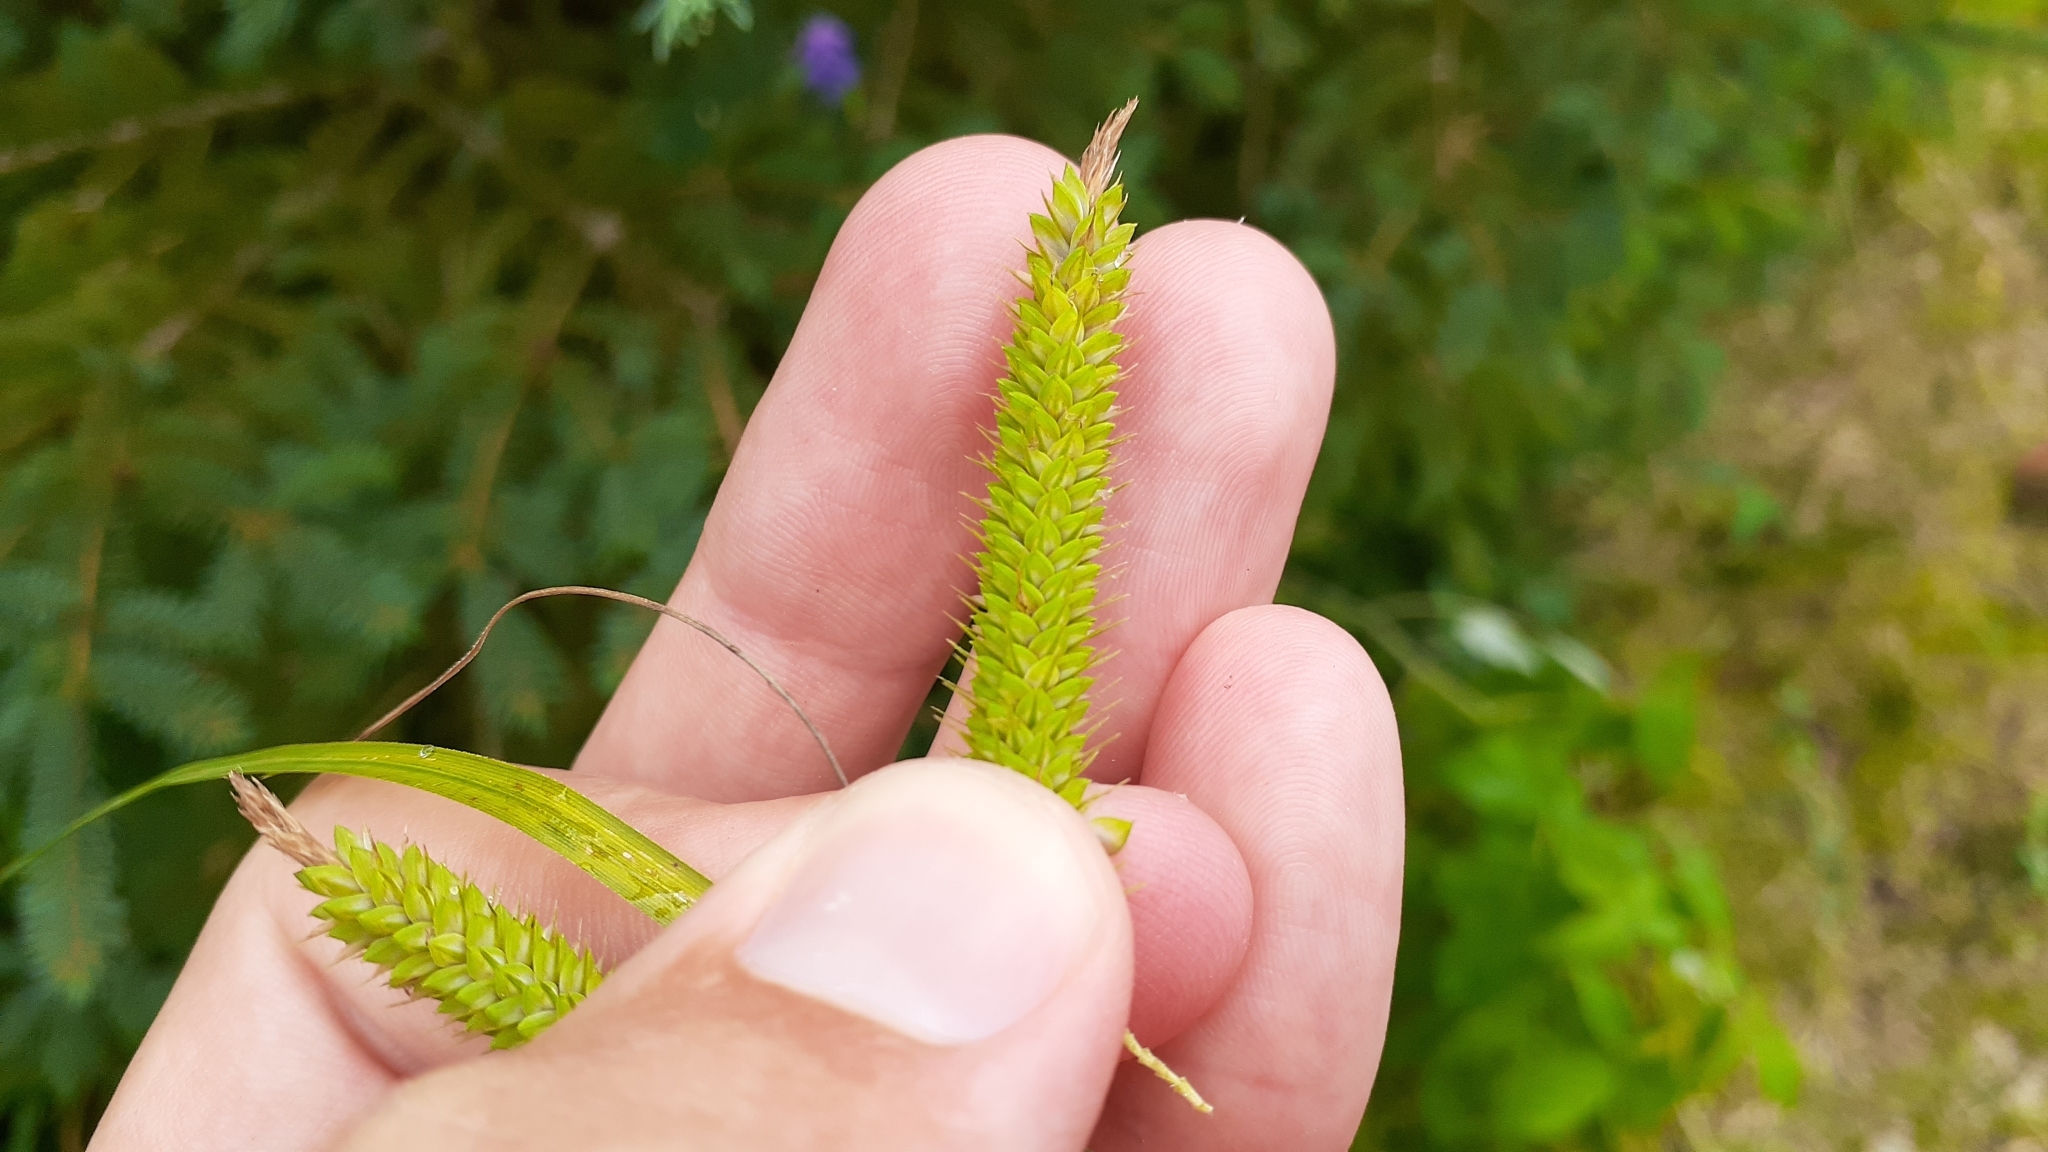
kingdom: Plantae
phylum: Tracheophyta
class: Liliopsida
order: Poales
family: Cyperaceae
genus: Carex
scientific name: Carex crinita
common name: Fringed sedge
